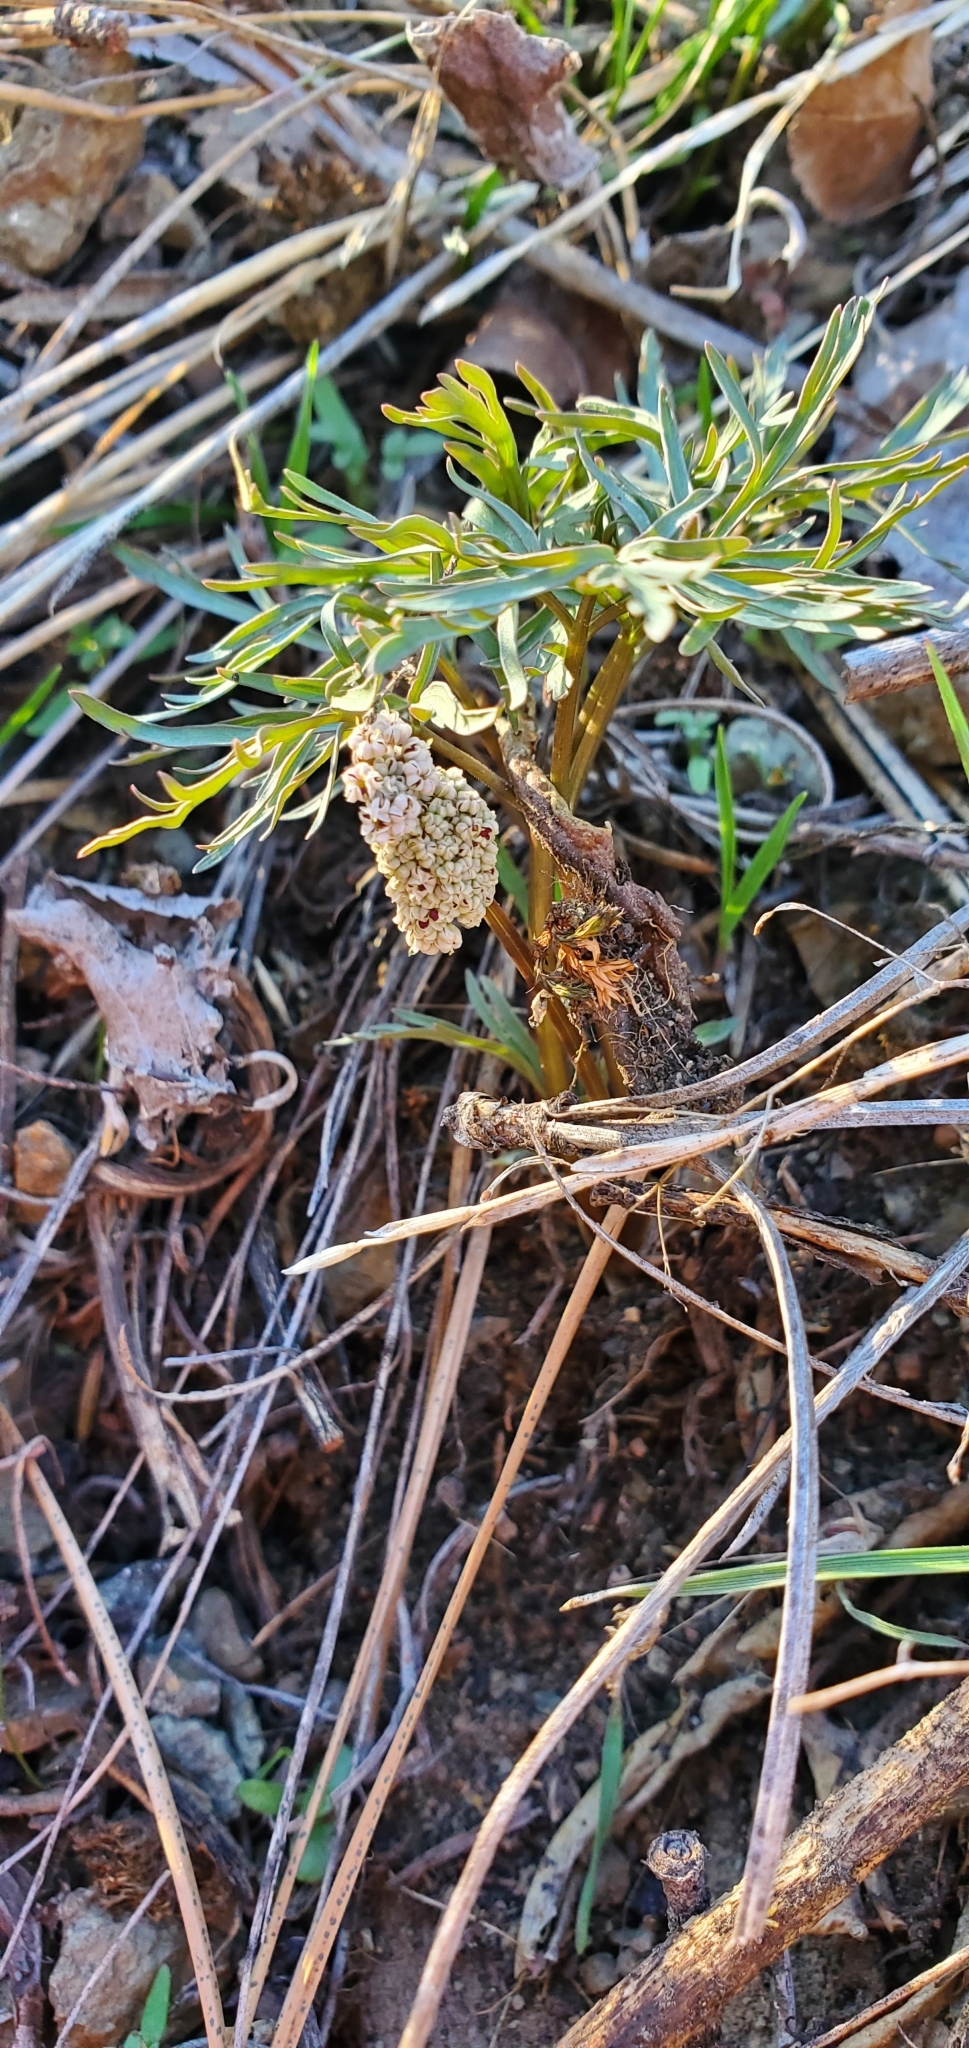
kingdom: Plantae
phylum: Tracheophyta
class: Magnoliopsida
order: Apiales
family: Apiaceae
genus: Lomatium
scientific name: Lomatium geyeri
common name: Geyer's biscuitroot
